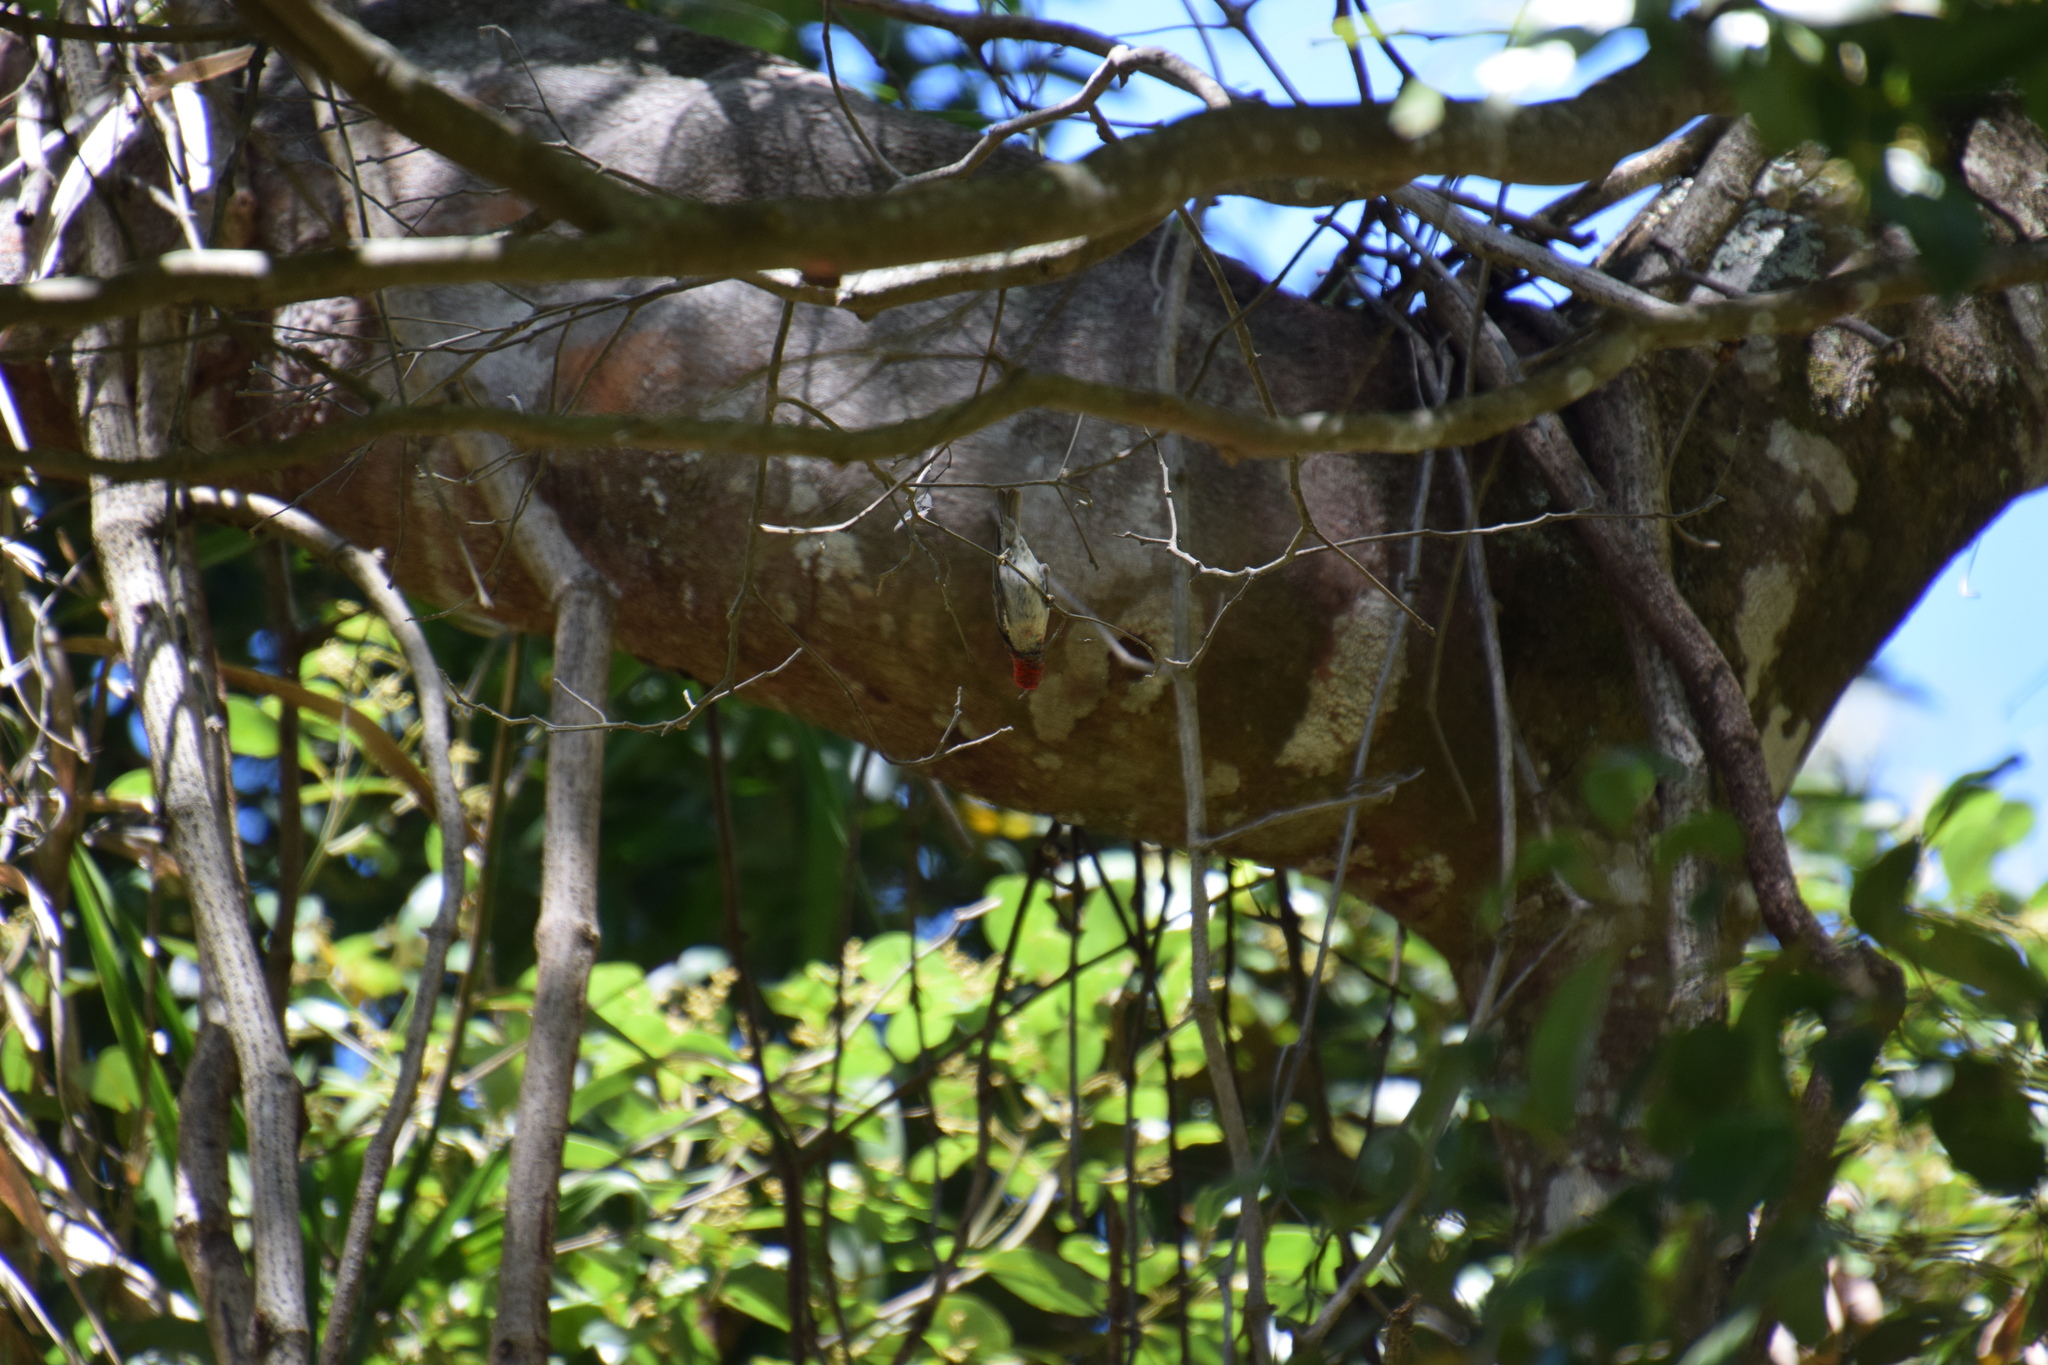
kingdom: Animalia
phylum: Chordata
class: Aves
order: Passeriformes
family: Meliphagidae
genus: Myzomela
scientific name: Myzomela sanguinolenta
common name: Scarlet myzomela
